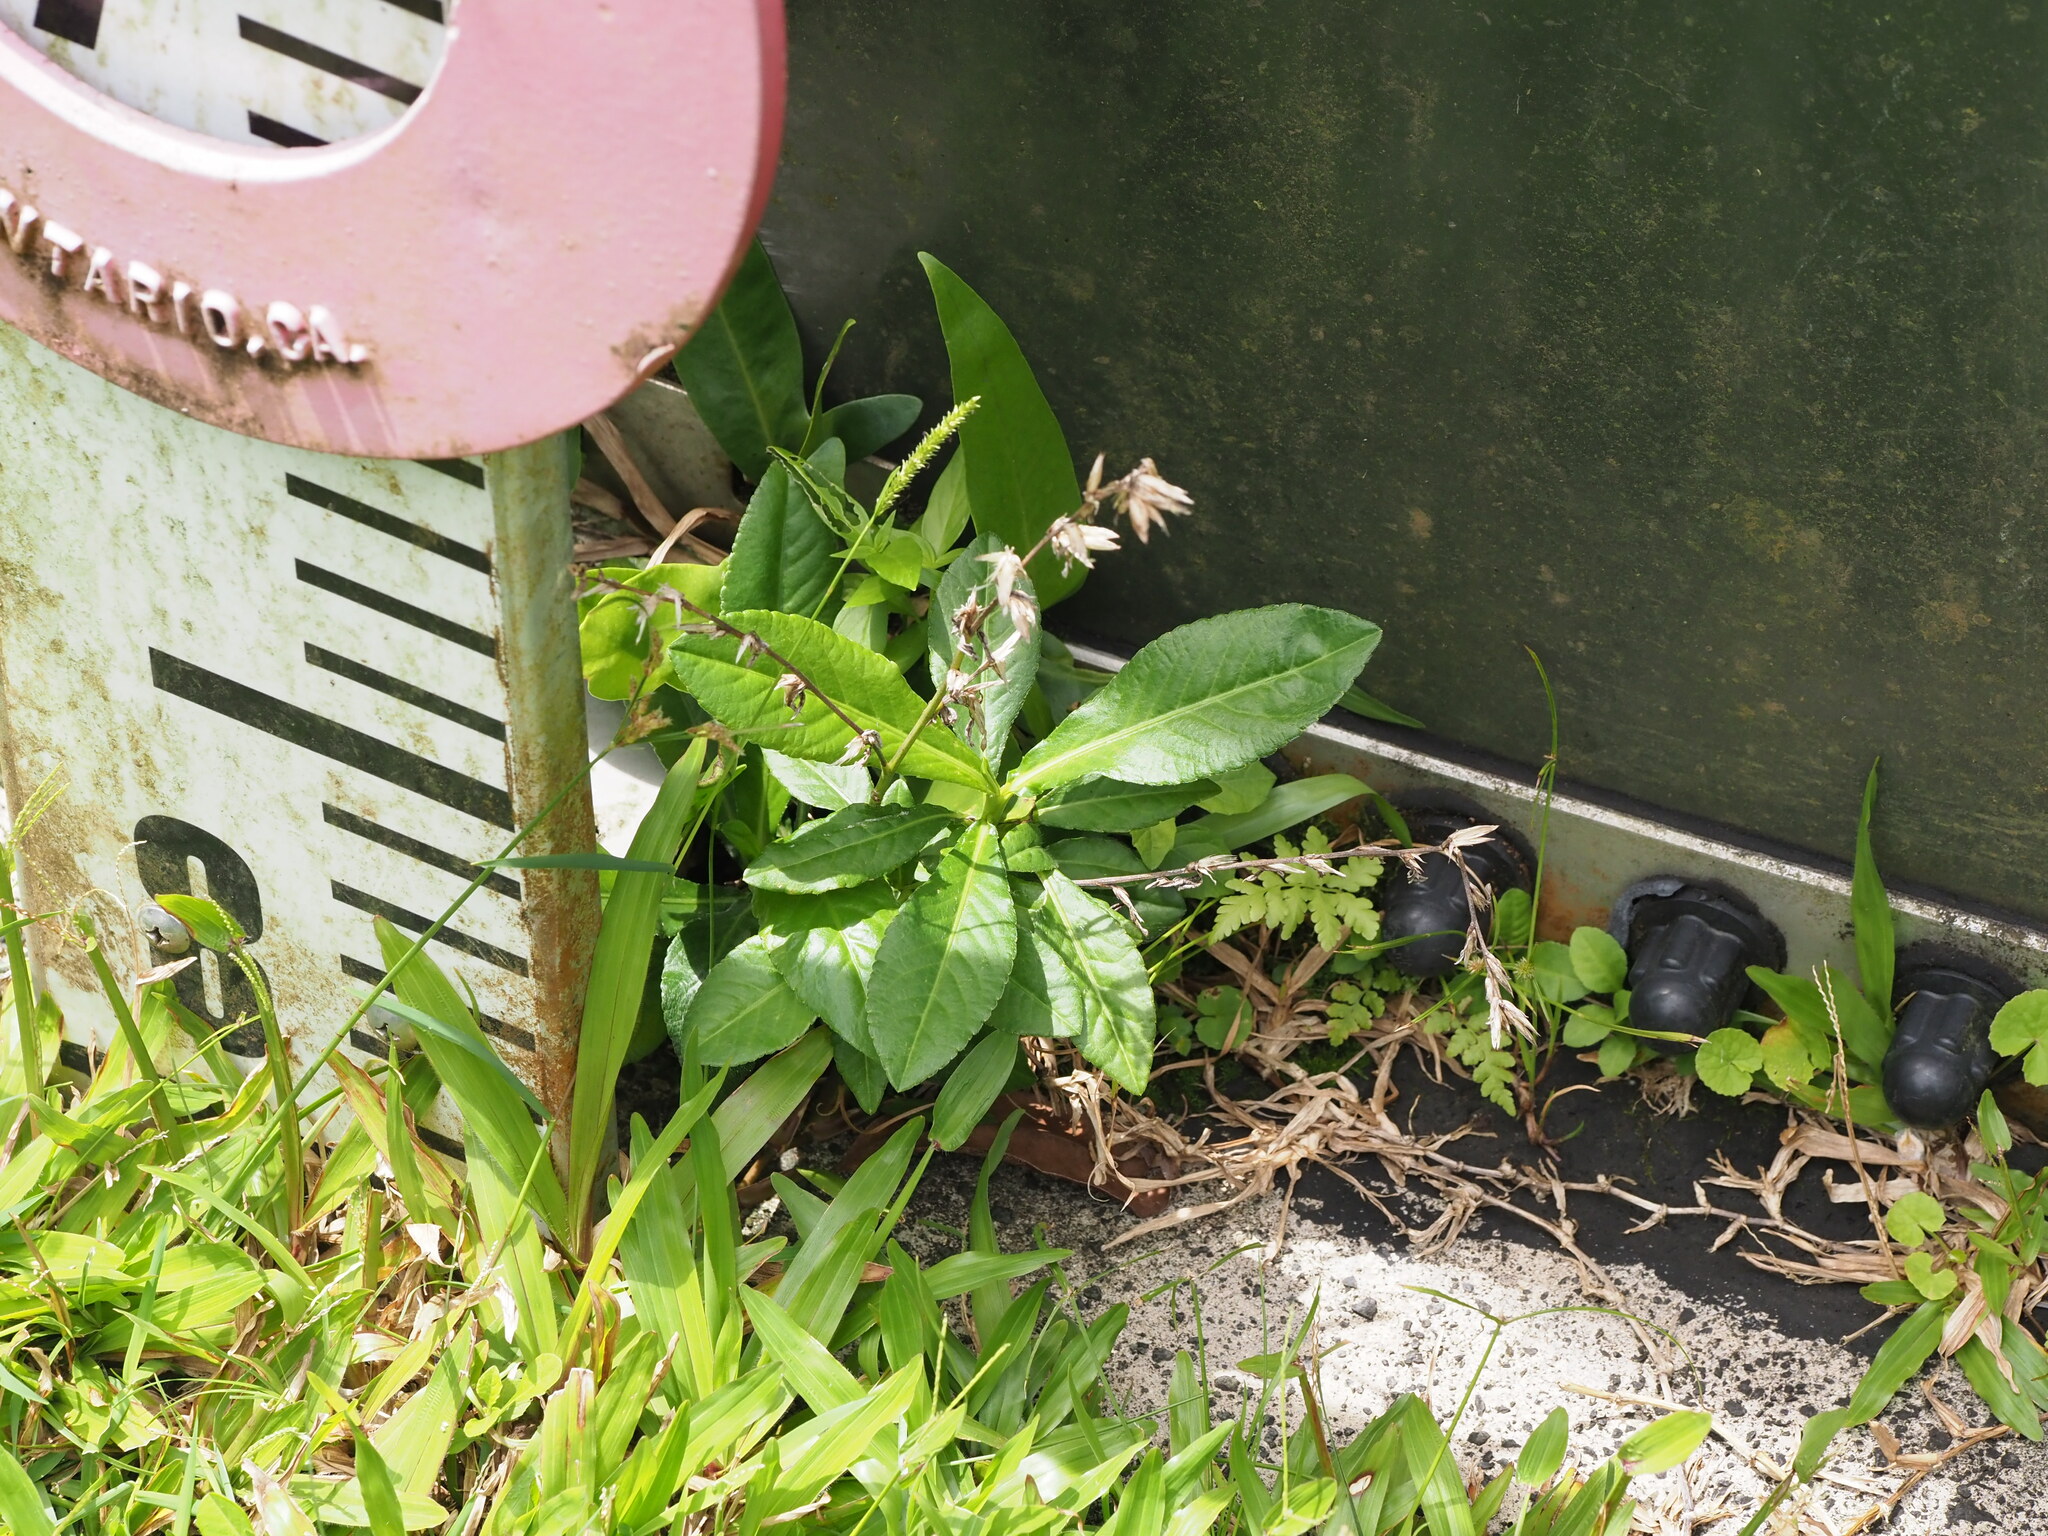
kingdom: Plantae
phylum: Tracheophyta
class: Magnoliopsida
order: Asterales
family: Asteraceae
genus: Pseudelephantopus
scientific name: Pseudelephantopus spicatus
